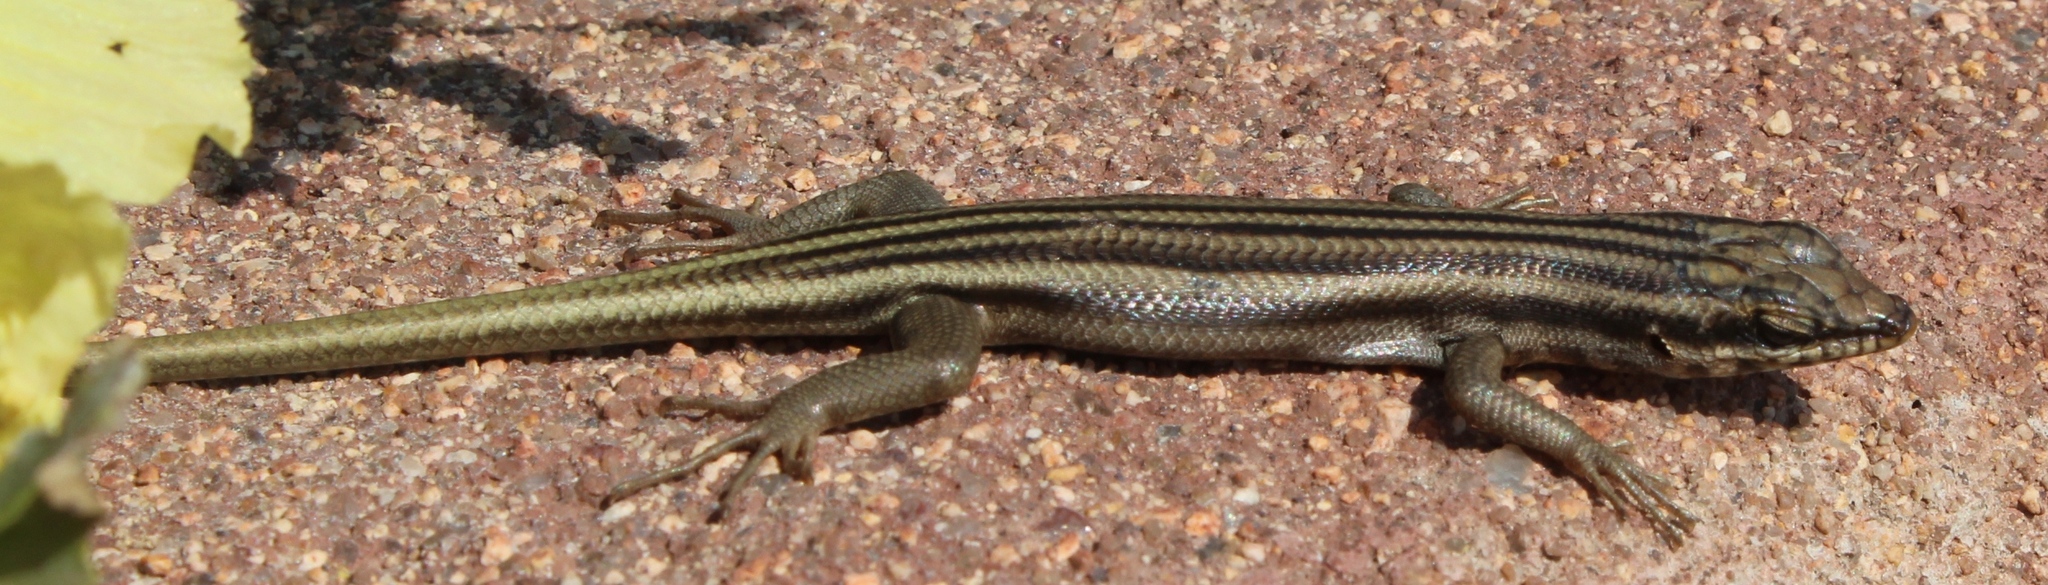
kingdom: Animalia
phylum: Chordata
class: Squamata
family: Scincidae
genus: Trachylepis
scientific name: Trachylepis sulcata
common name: Western rock skink
